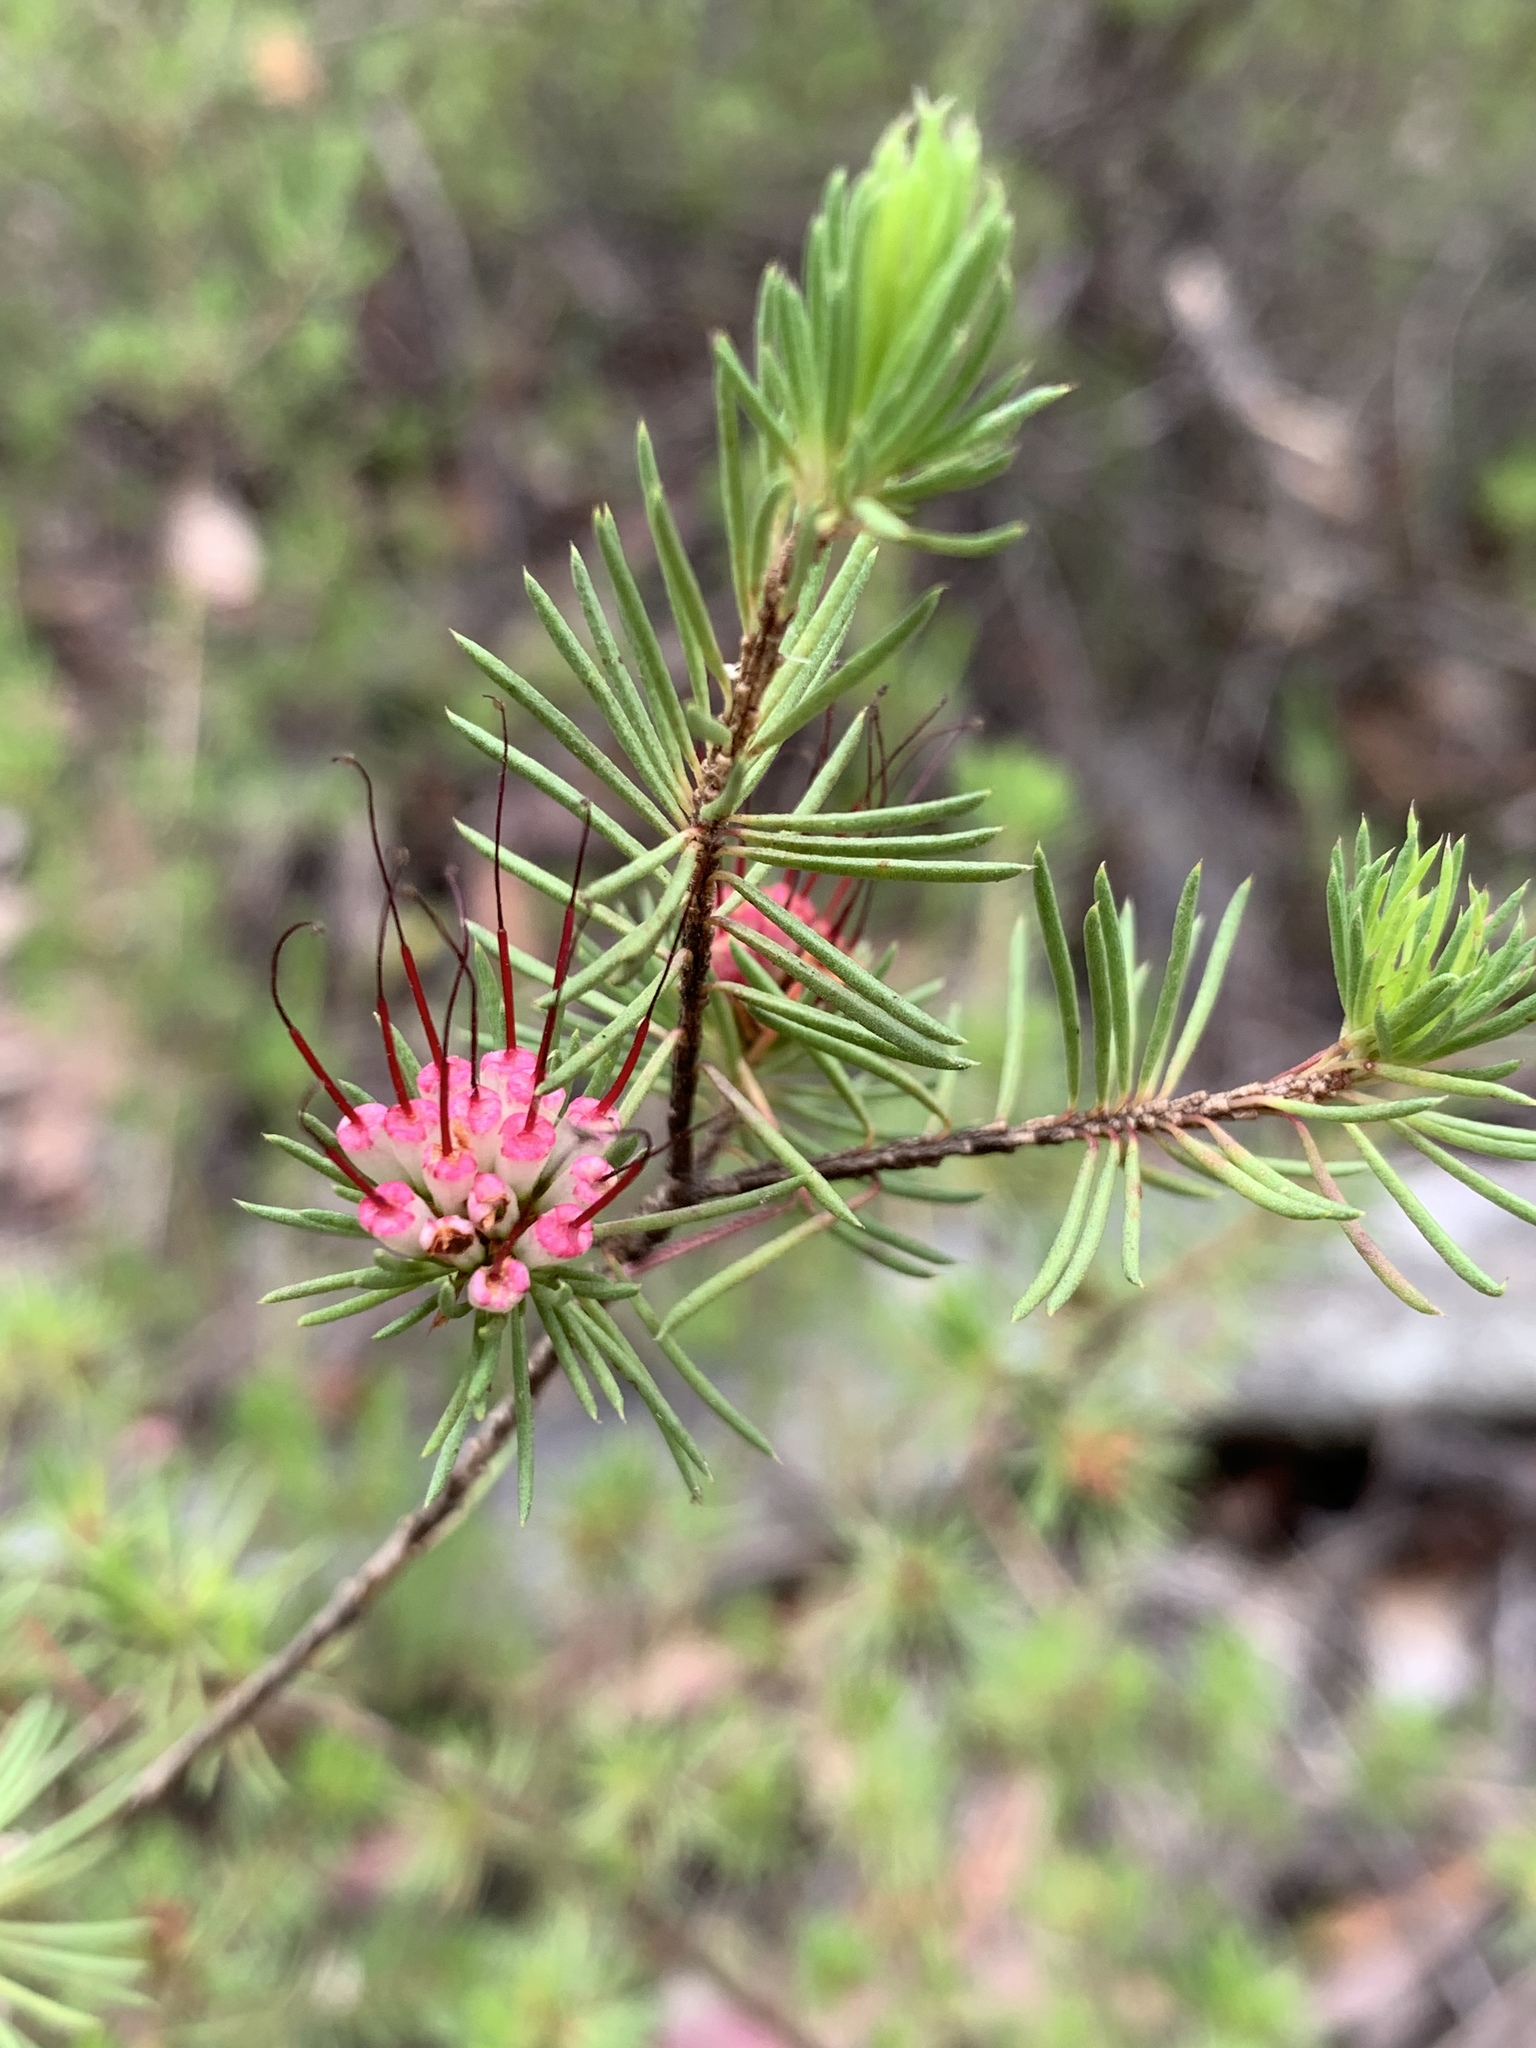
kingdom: Plantae
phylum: Tracheophyta
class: Magnoliopsida
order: Myrtales
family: Myrtaceae
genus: Darwinia
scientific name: Darwinia fascicularis
